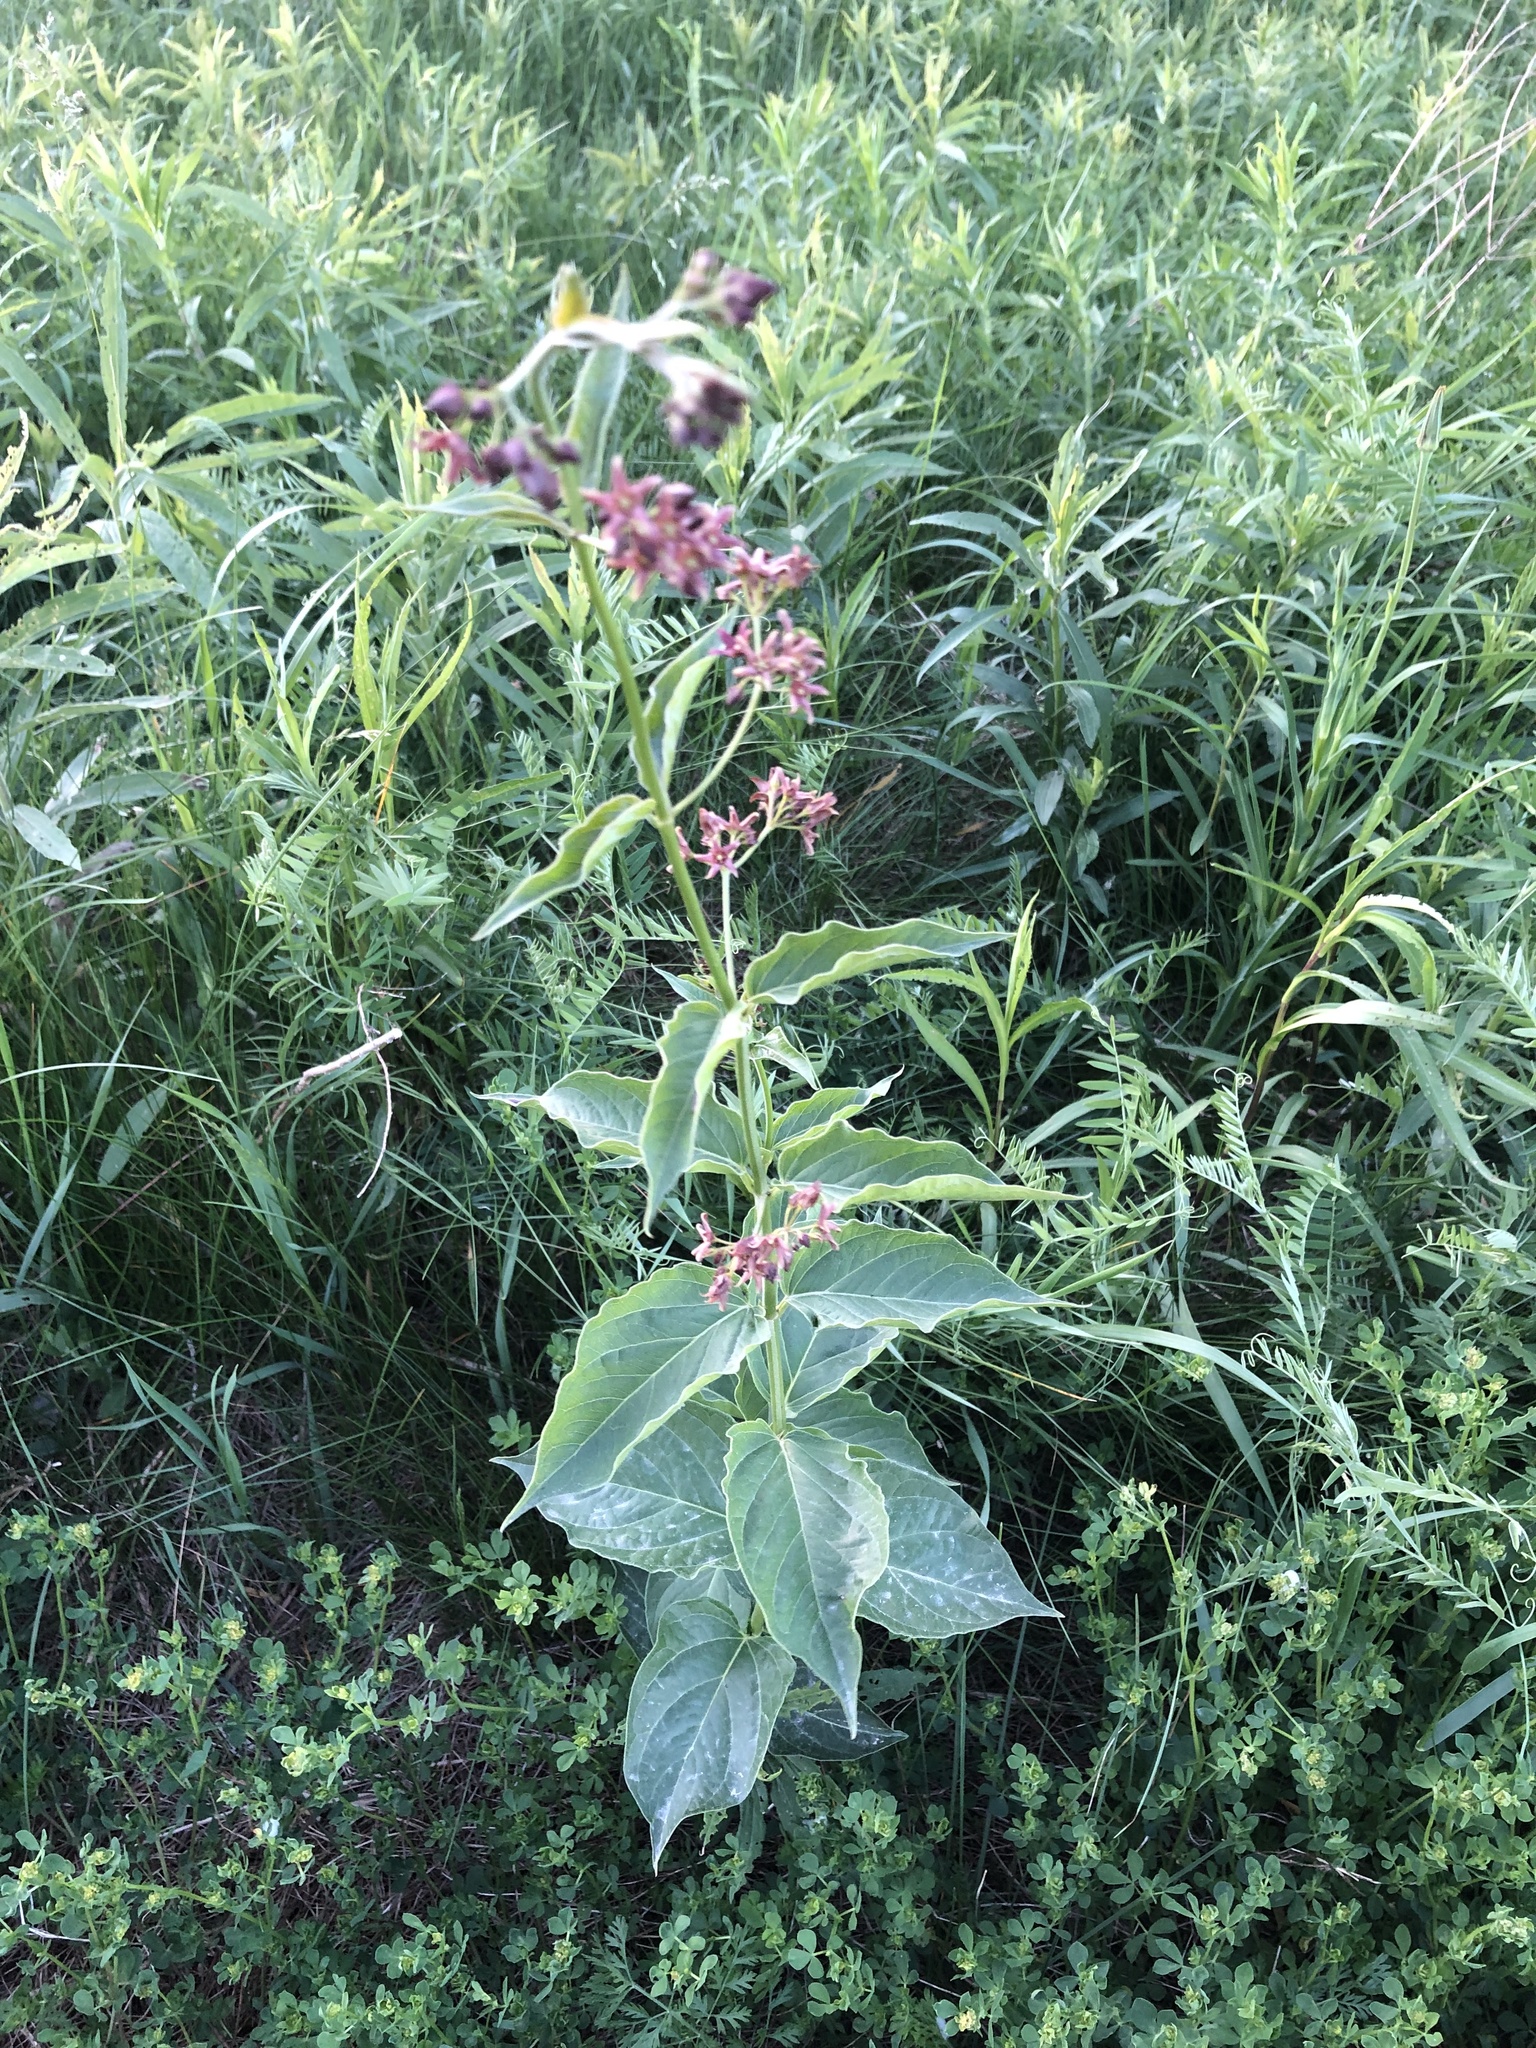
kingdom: Plantae
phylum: Tracheophyta
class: Magnoliopsida
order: Gentianales
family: Apocynaceae
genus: Vincetoxicum
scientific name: Vincetoxicum rossicum
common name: Dog-strangling vine
